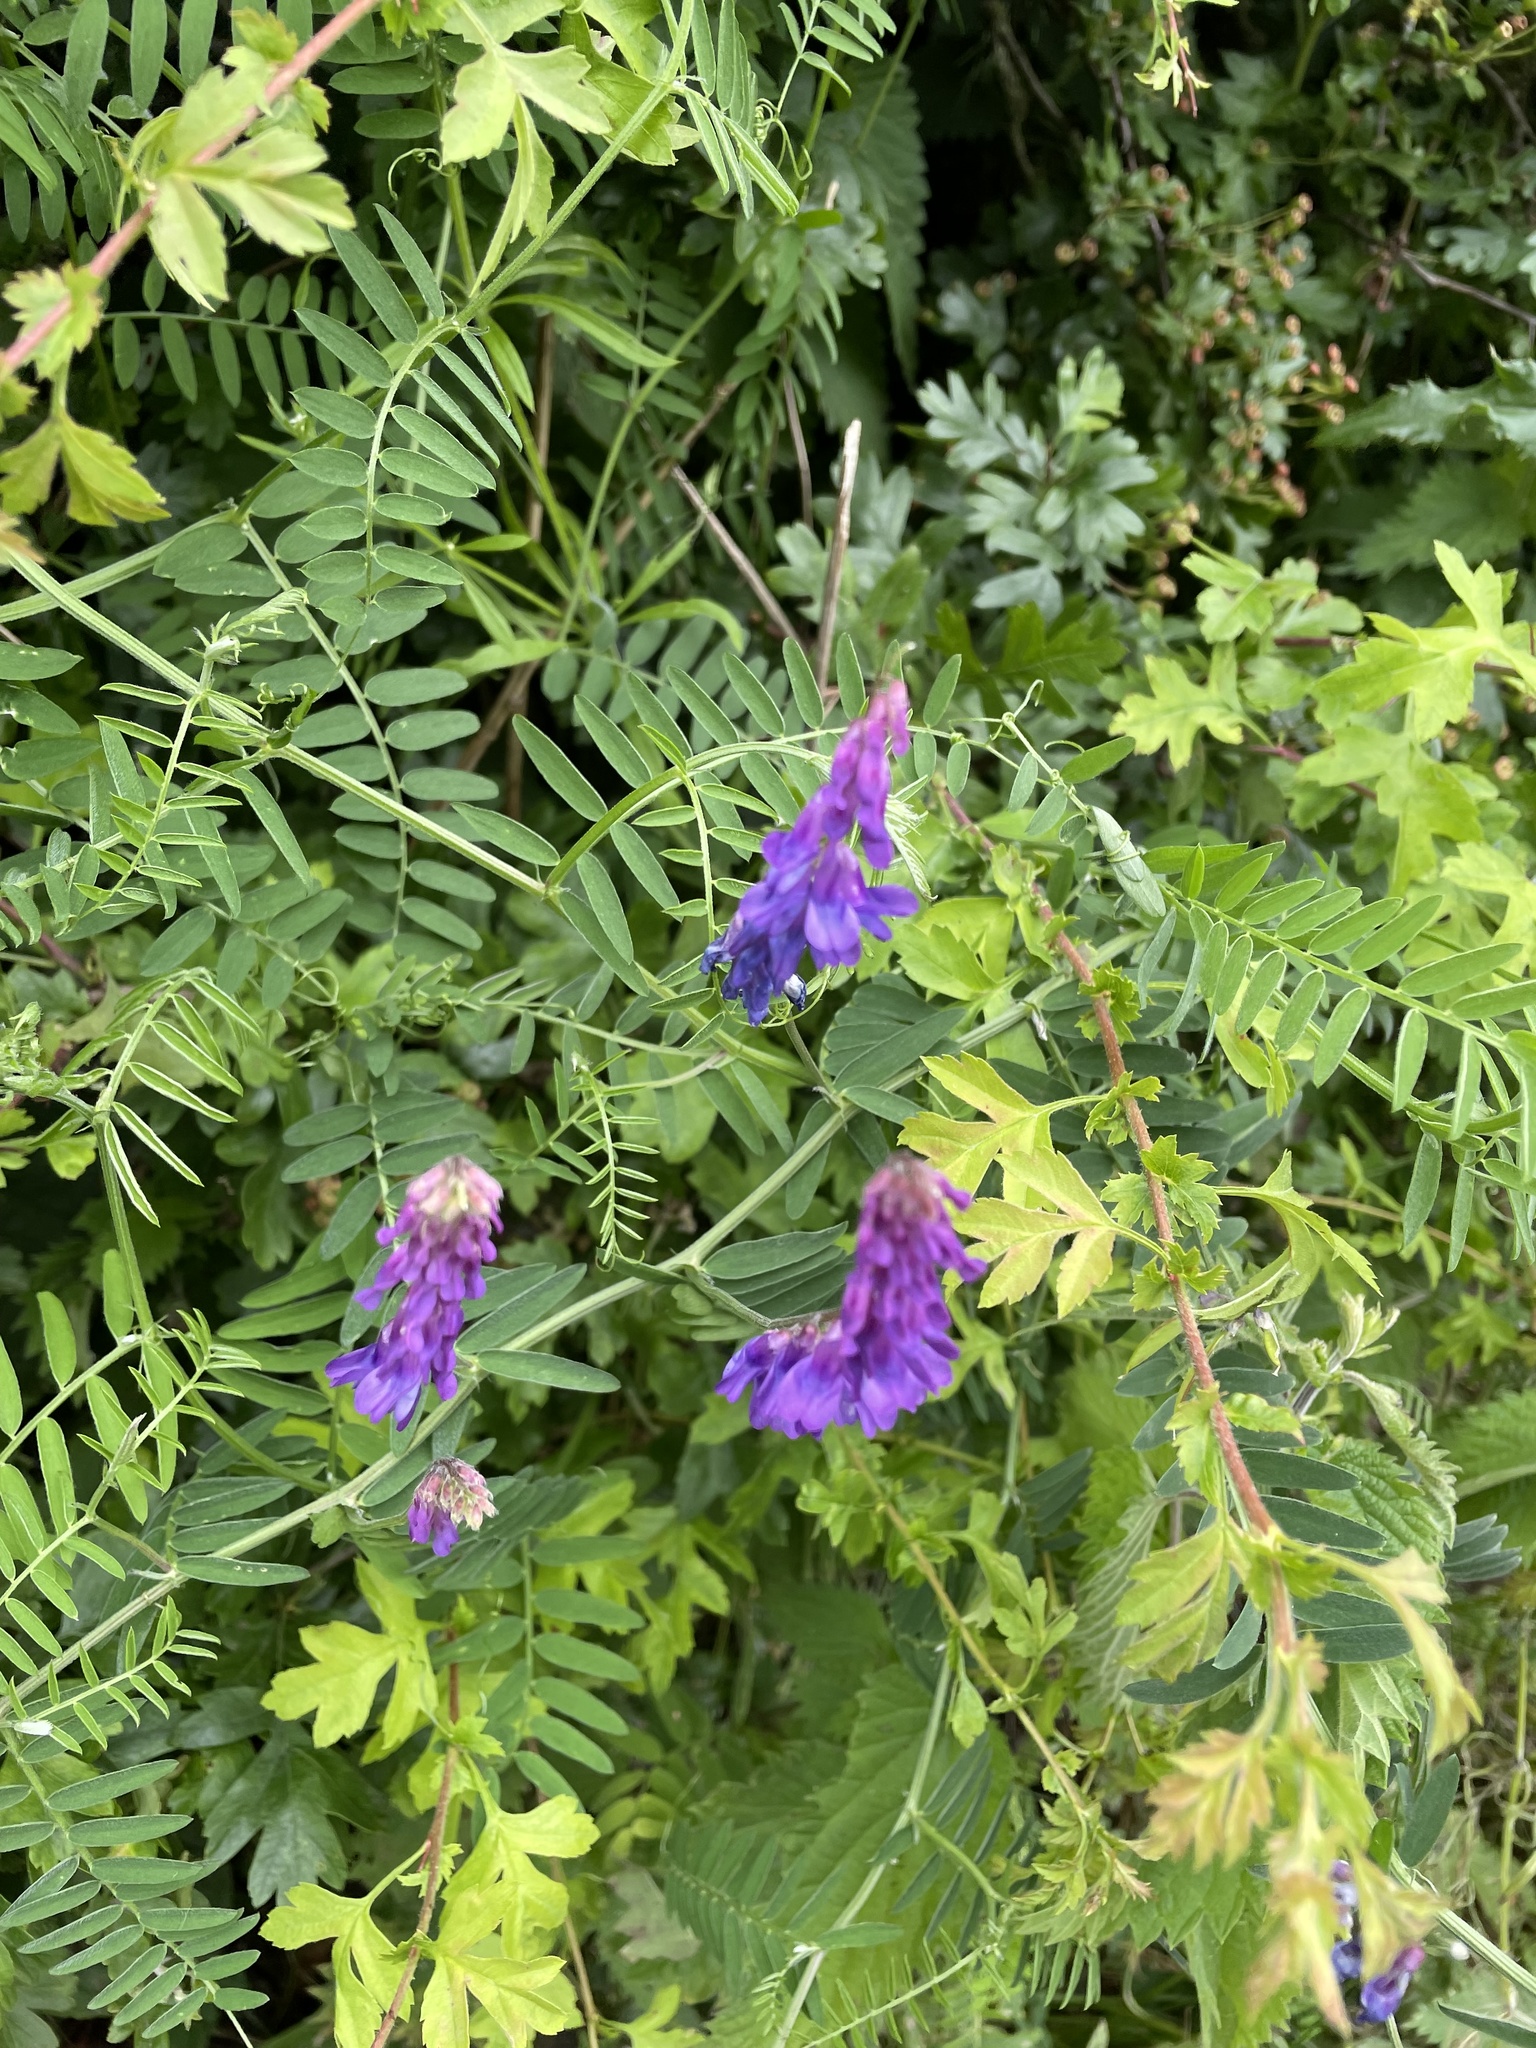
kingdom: Plantae
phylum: Tracheophyta
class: Magnoliopsida
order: Fabales
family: Fabaceae
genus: Vicia
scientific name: Vicia cracca
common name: Bird vetch
